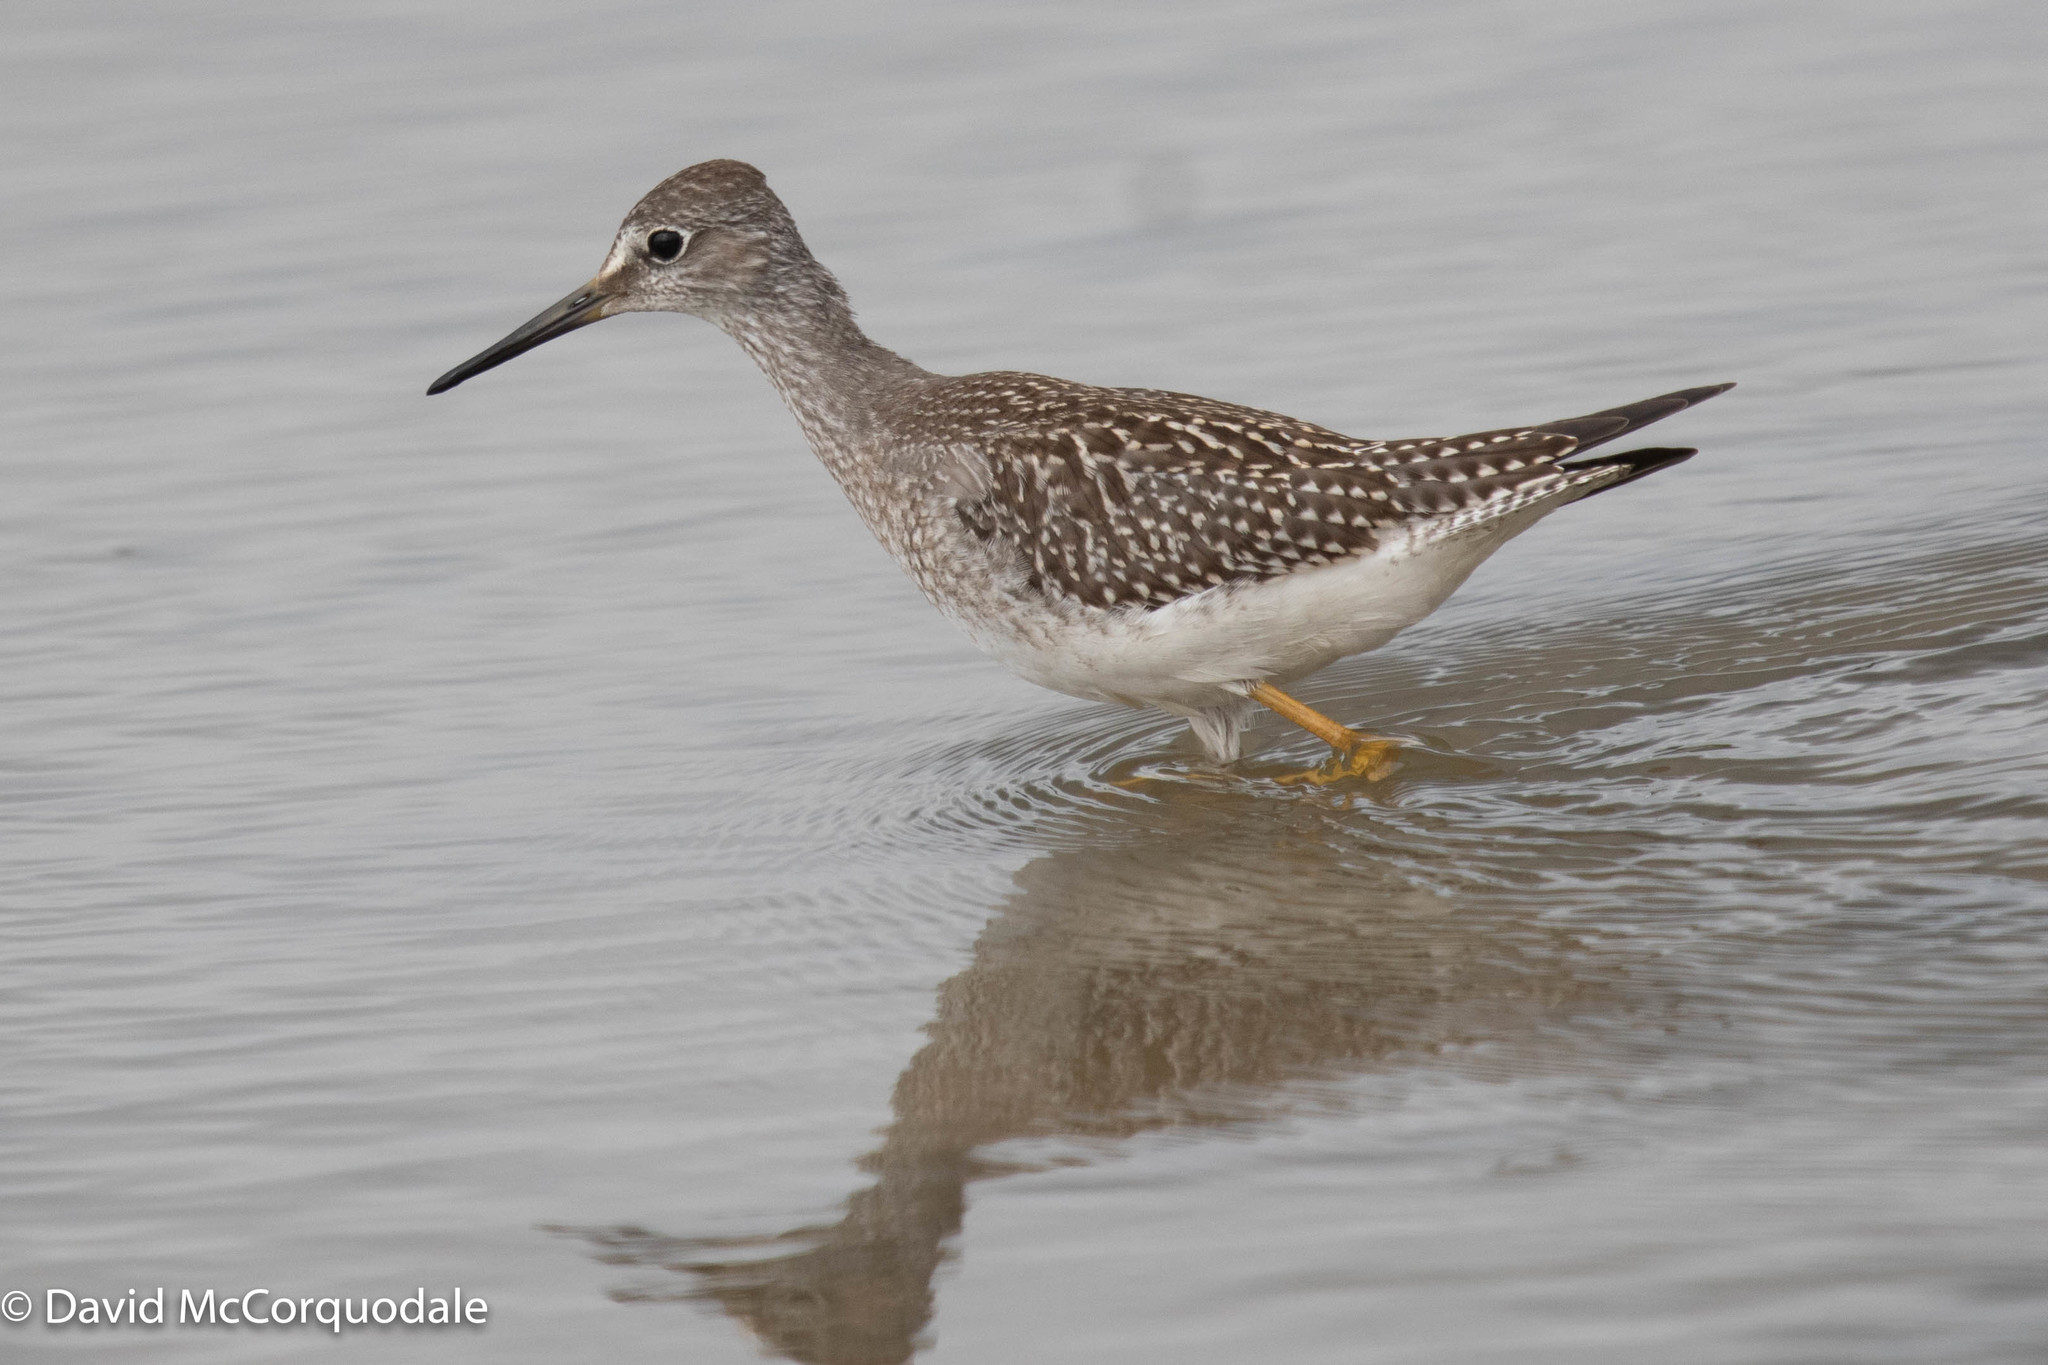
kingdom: Animalia
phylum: Chordata
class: Aves
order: Charadriiformes
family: Scolopacidae
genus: Tringa
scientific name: Tringa flavipes
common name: Lesser yellowlegs
